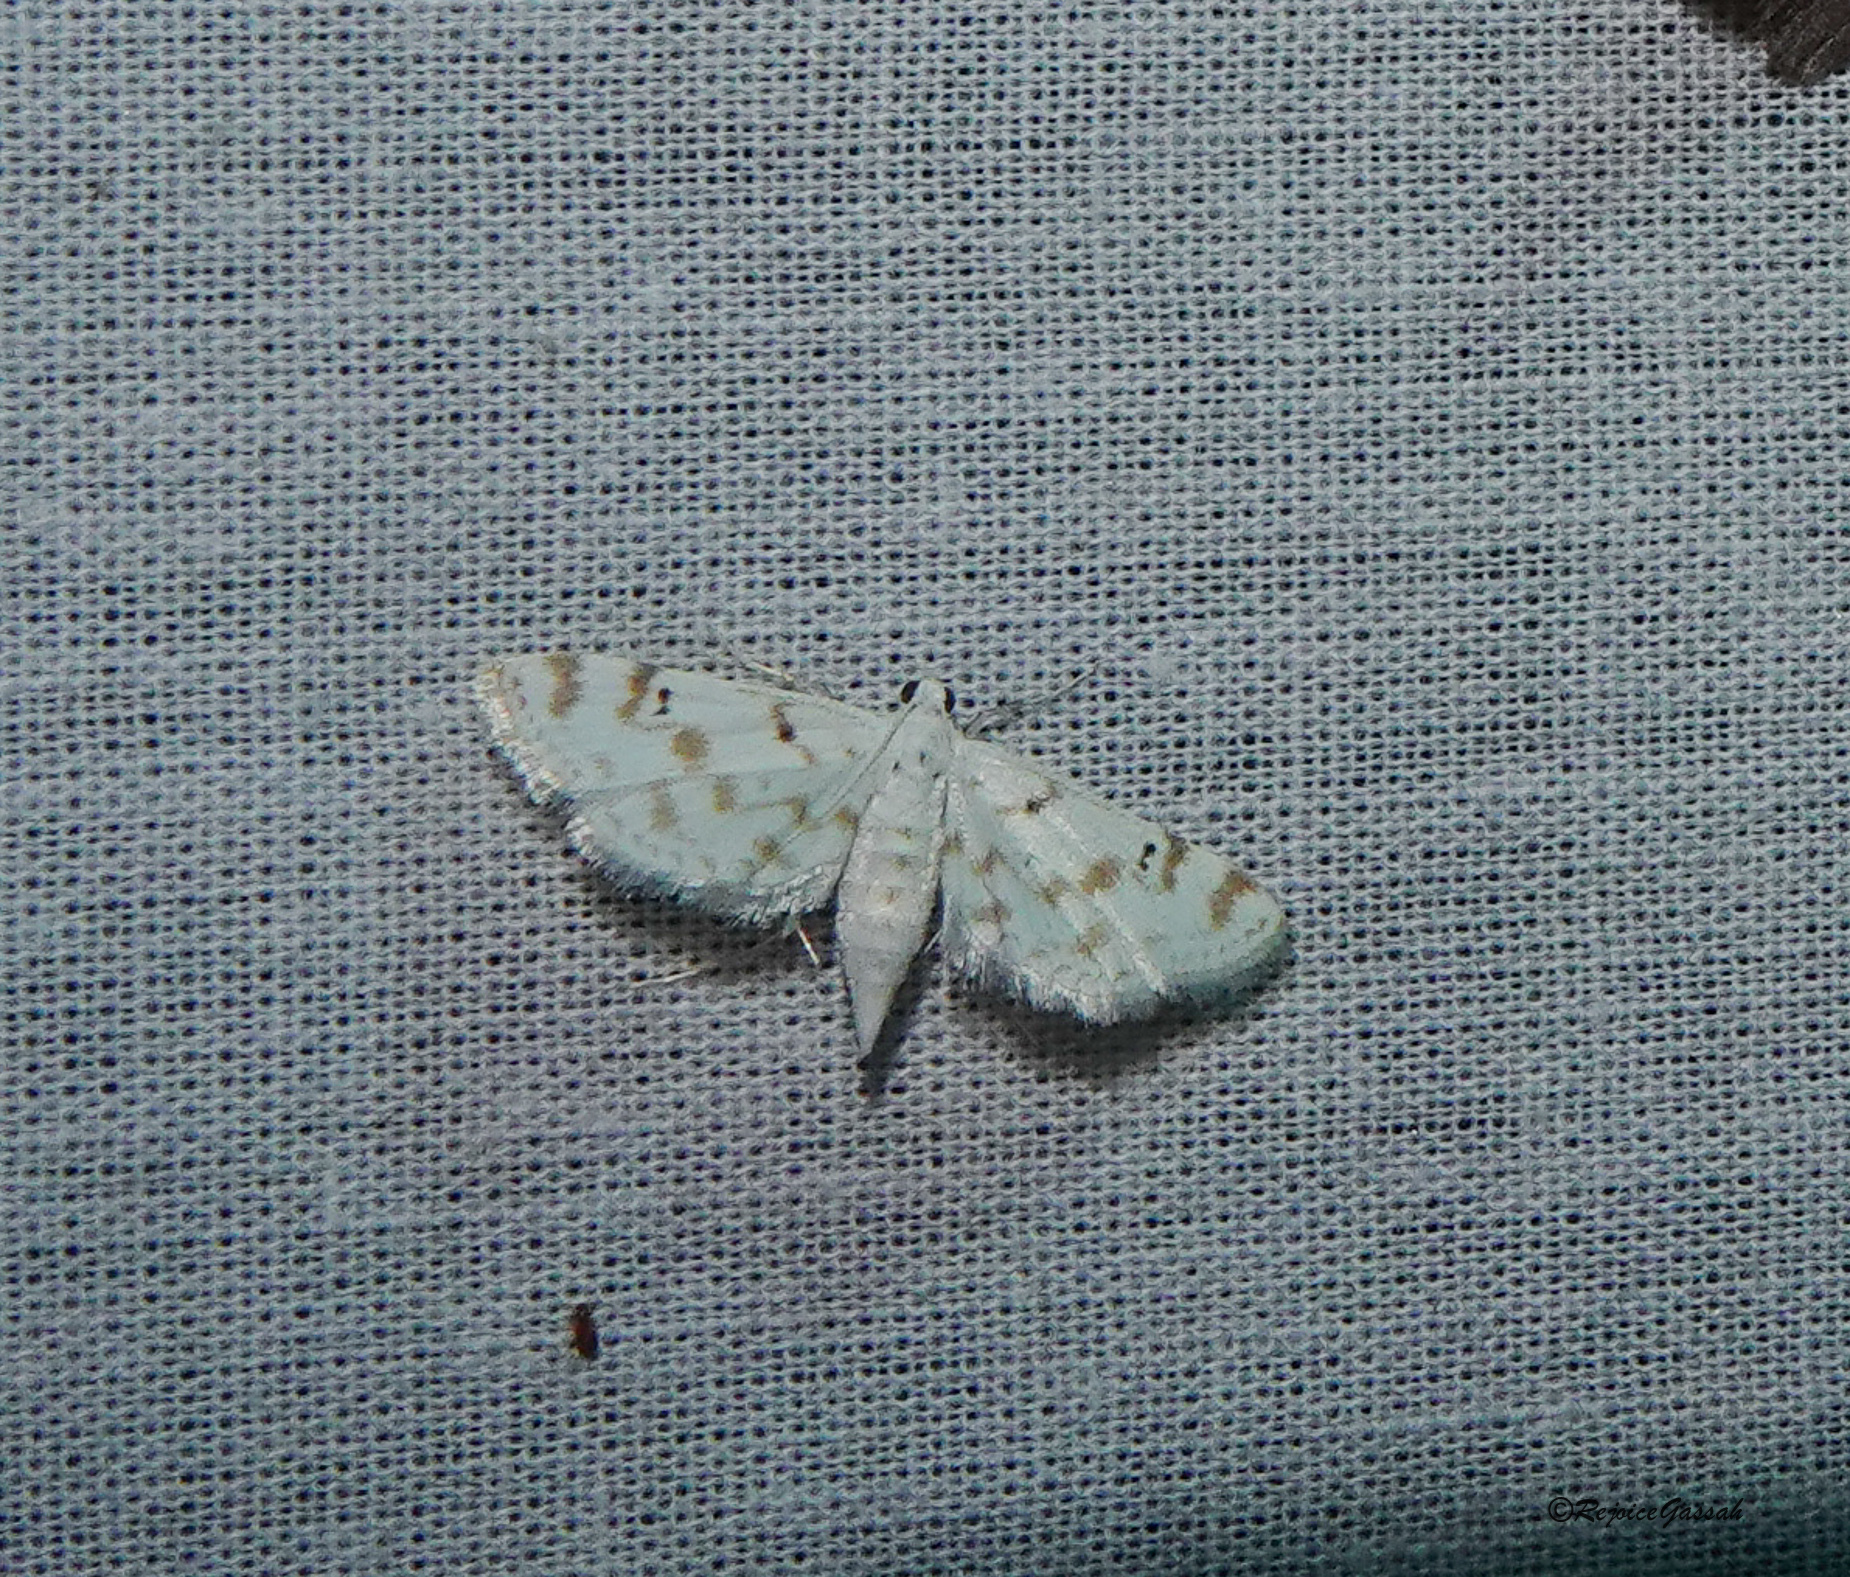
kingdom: Animalia
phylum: Arthropoda
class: Insecta
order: Lepidoptera
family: Crambidae
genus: Parapoynx
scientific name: Parapoynx stagnalis
